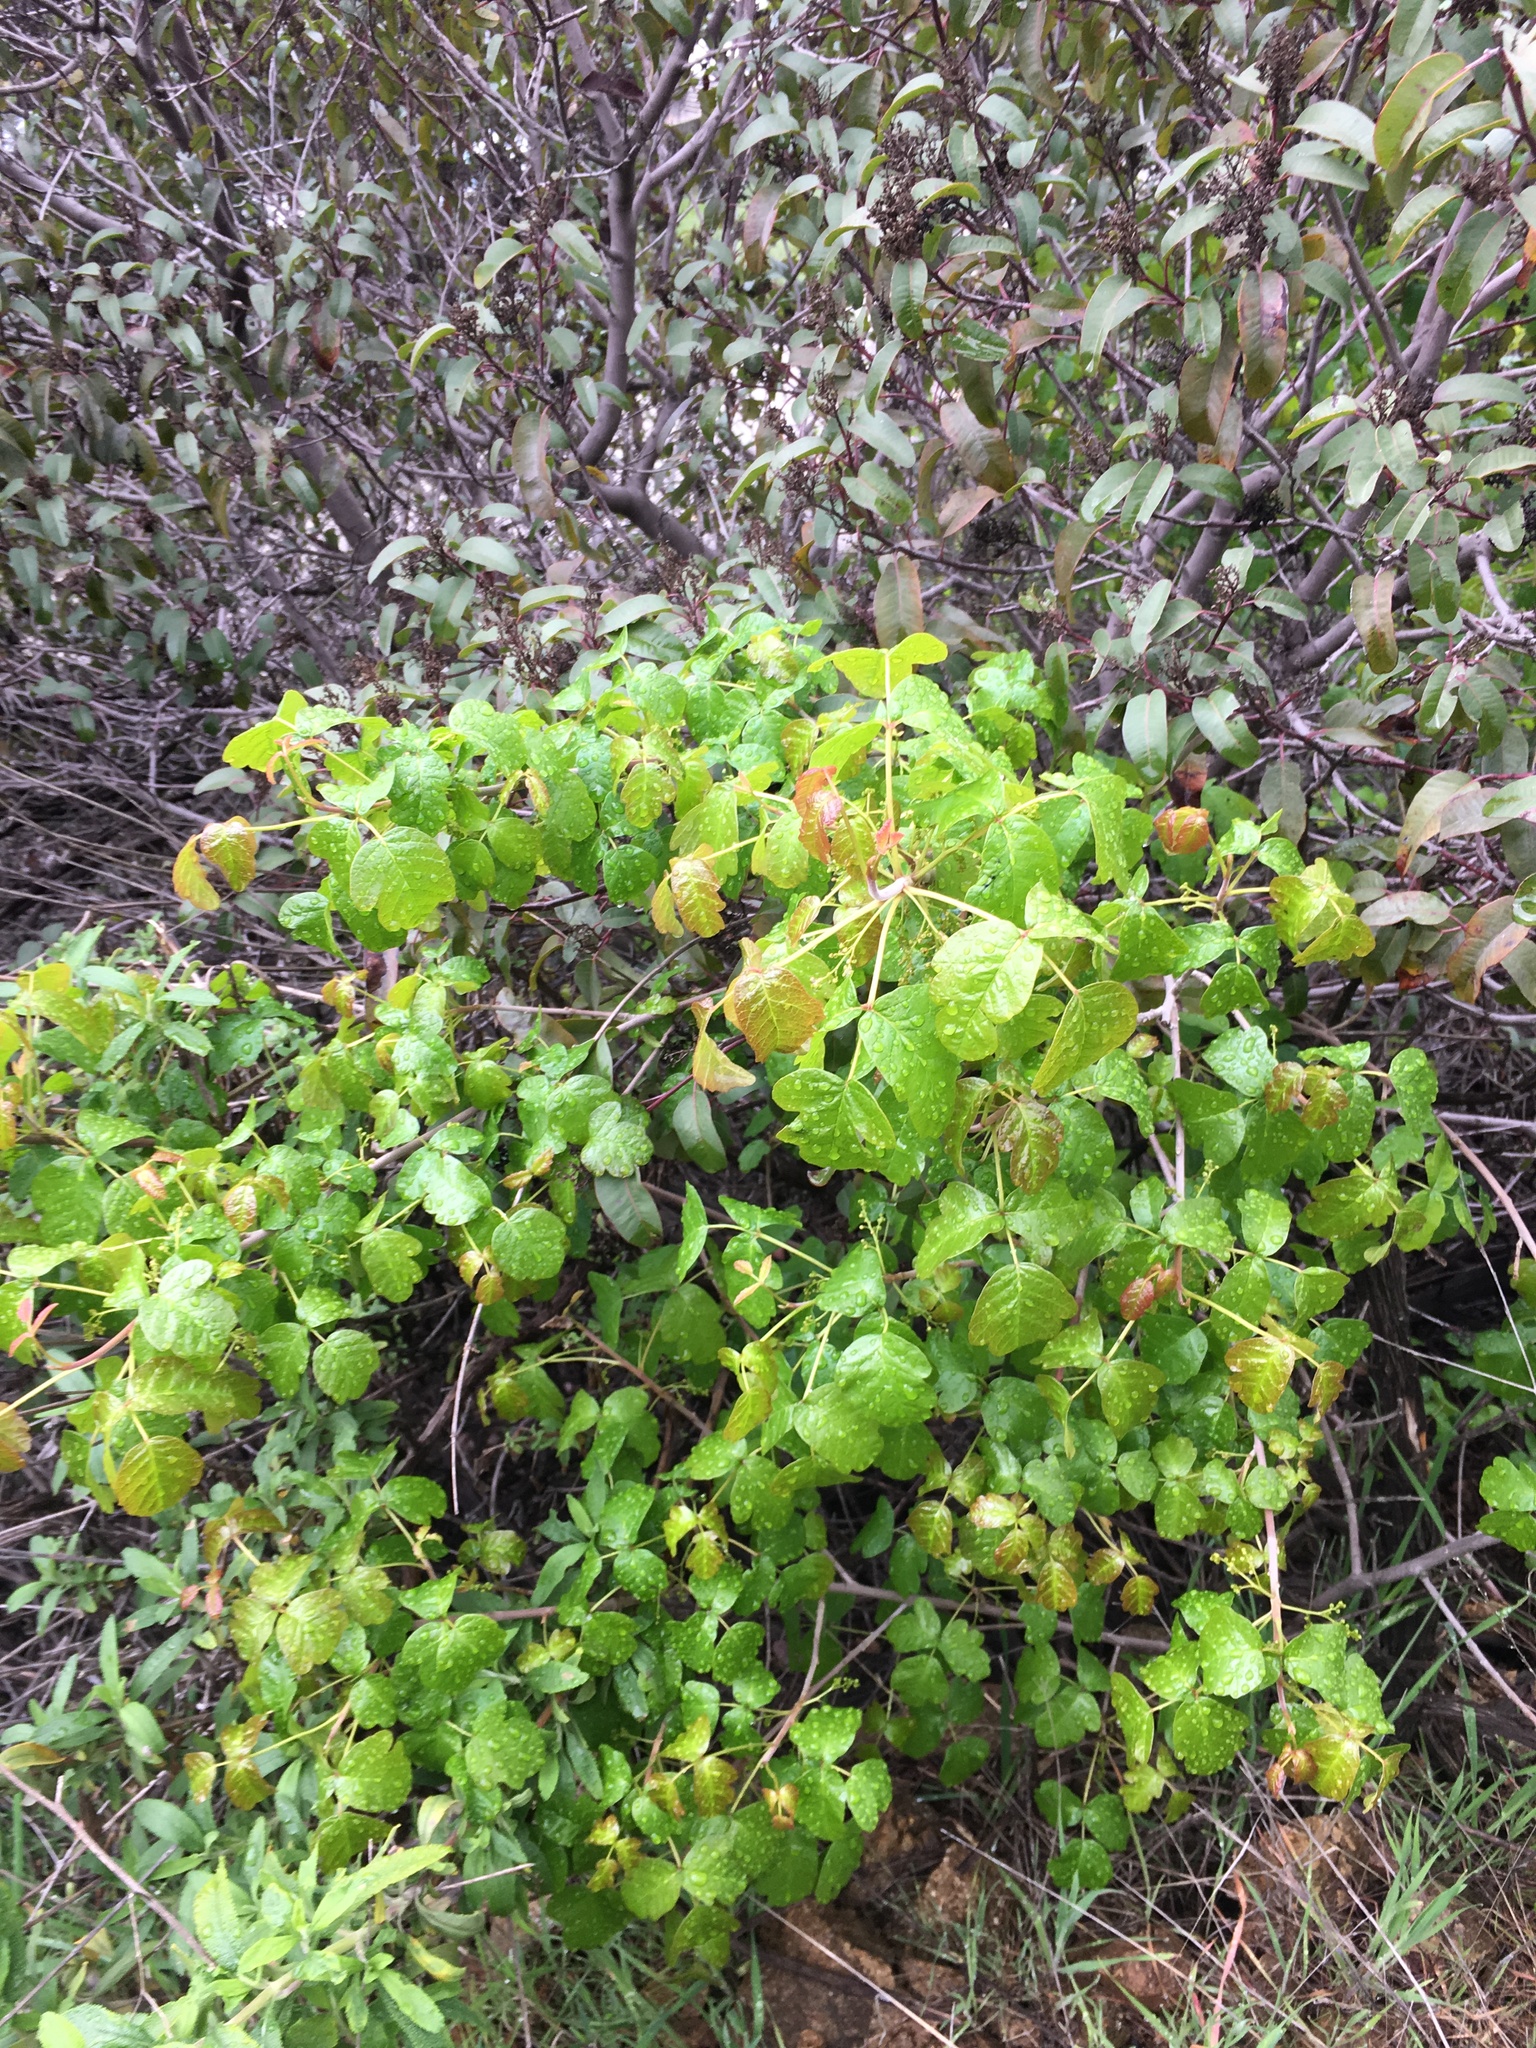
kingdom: Plantae
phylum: Tracheophyta
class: Magnoliopsida
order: Sapindales
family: Anacardiaceae
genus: Toxicodendron
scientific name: Toxicodendron diversilobum
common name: Pacific poison-oak
